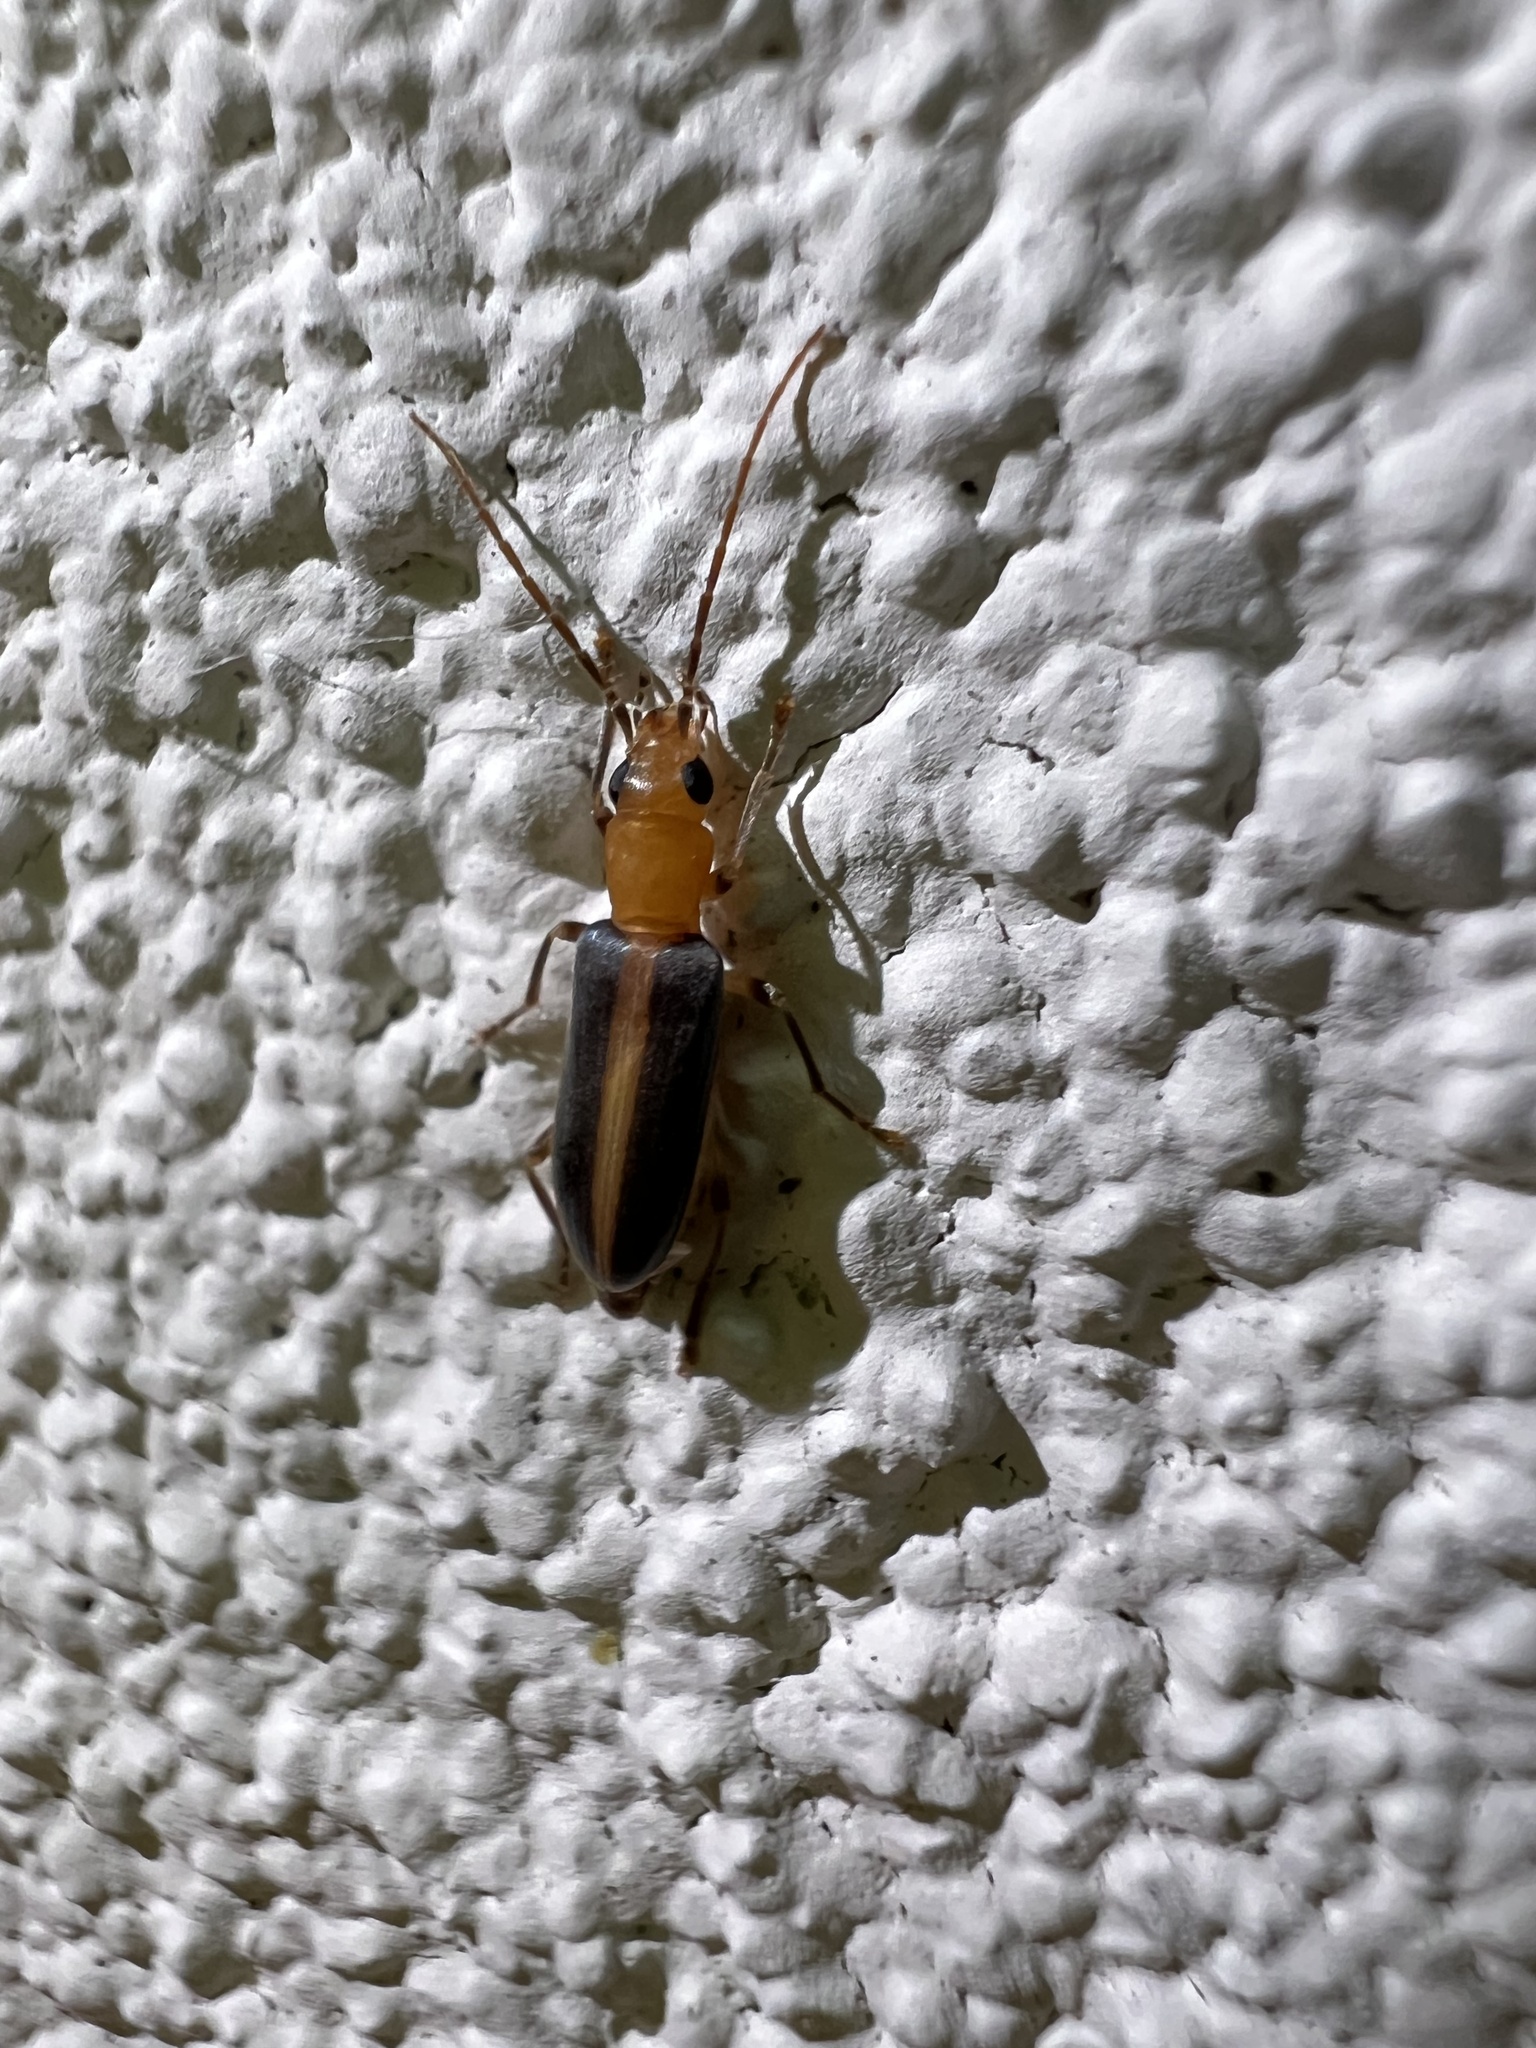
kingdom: Animalia
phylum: Arthropoda
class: Insecta
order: Coleoptera
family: Oedemeridae
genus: Oxycopis
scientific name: Oxycopis vittata
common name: False blister beetle
